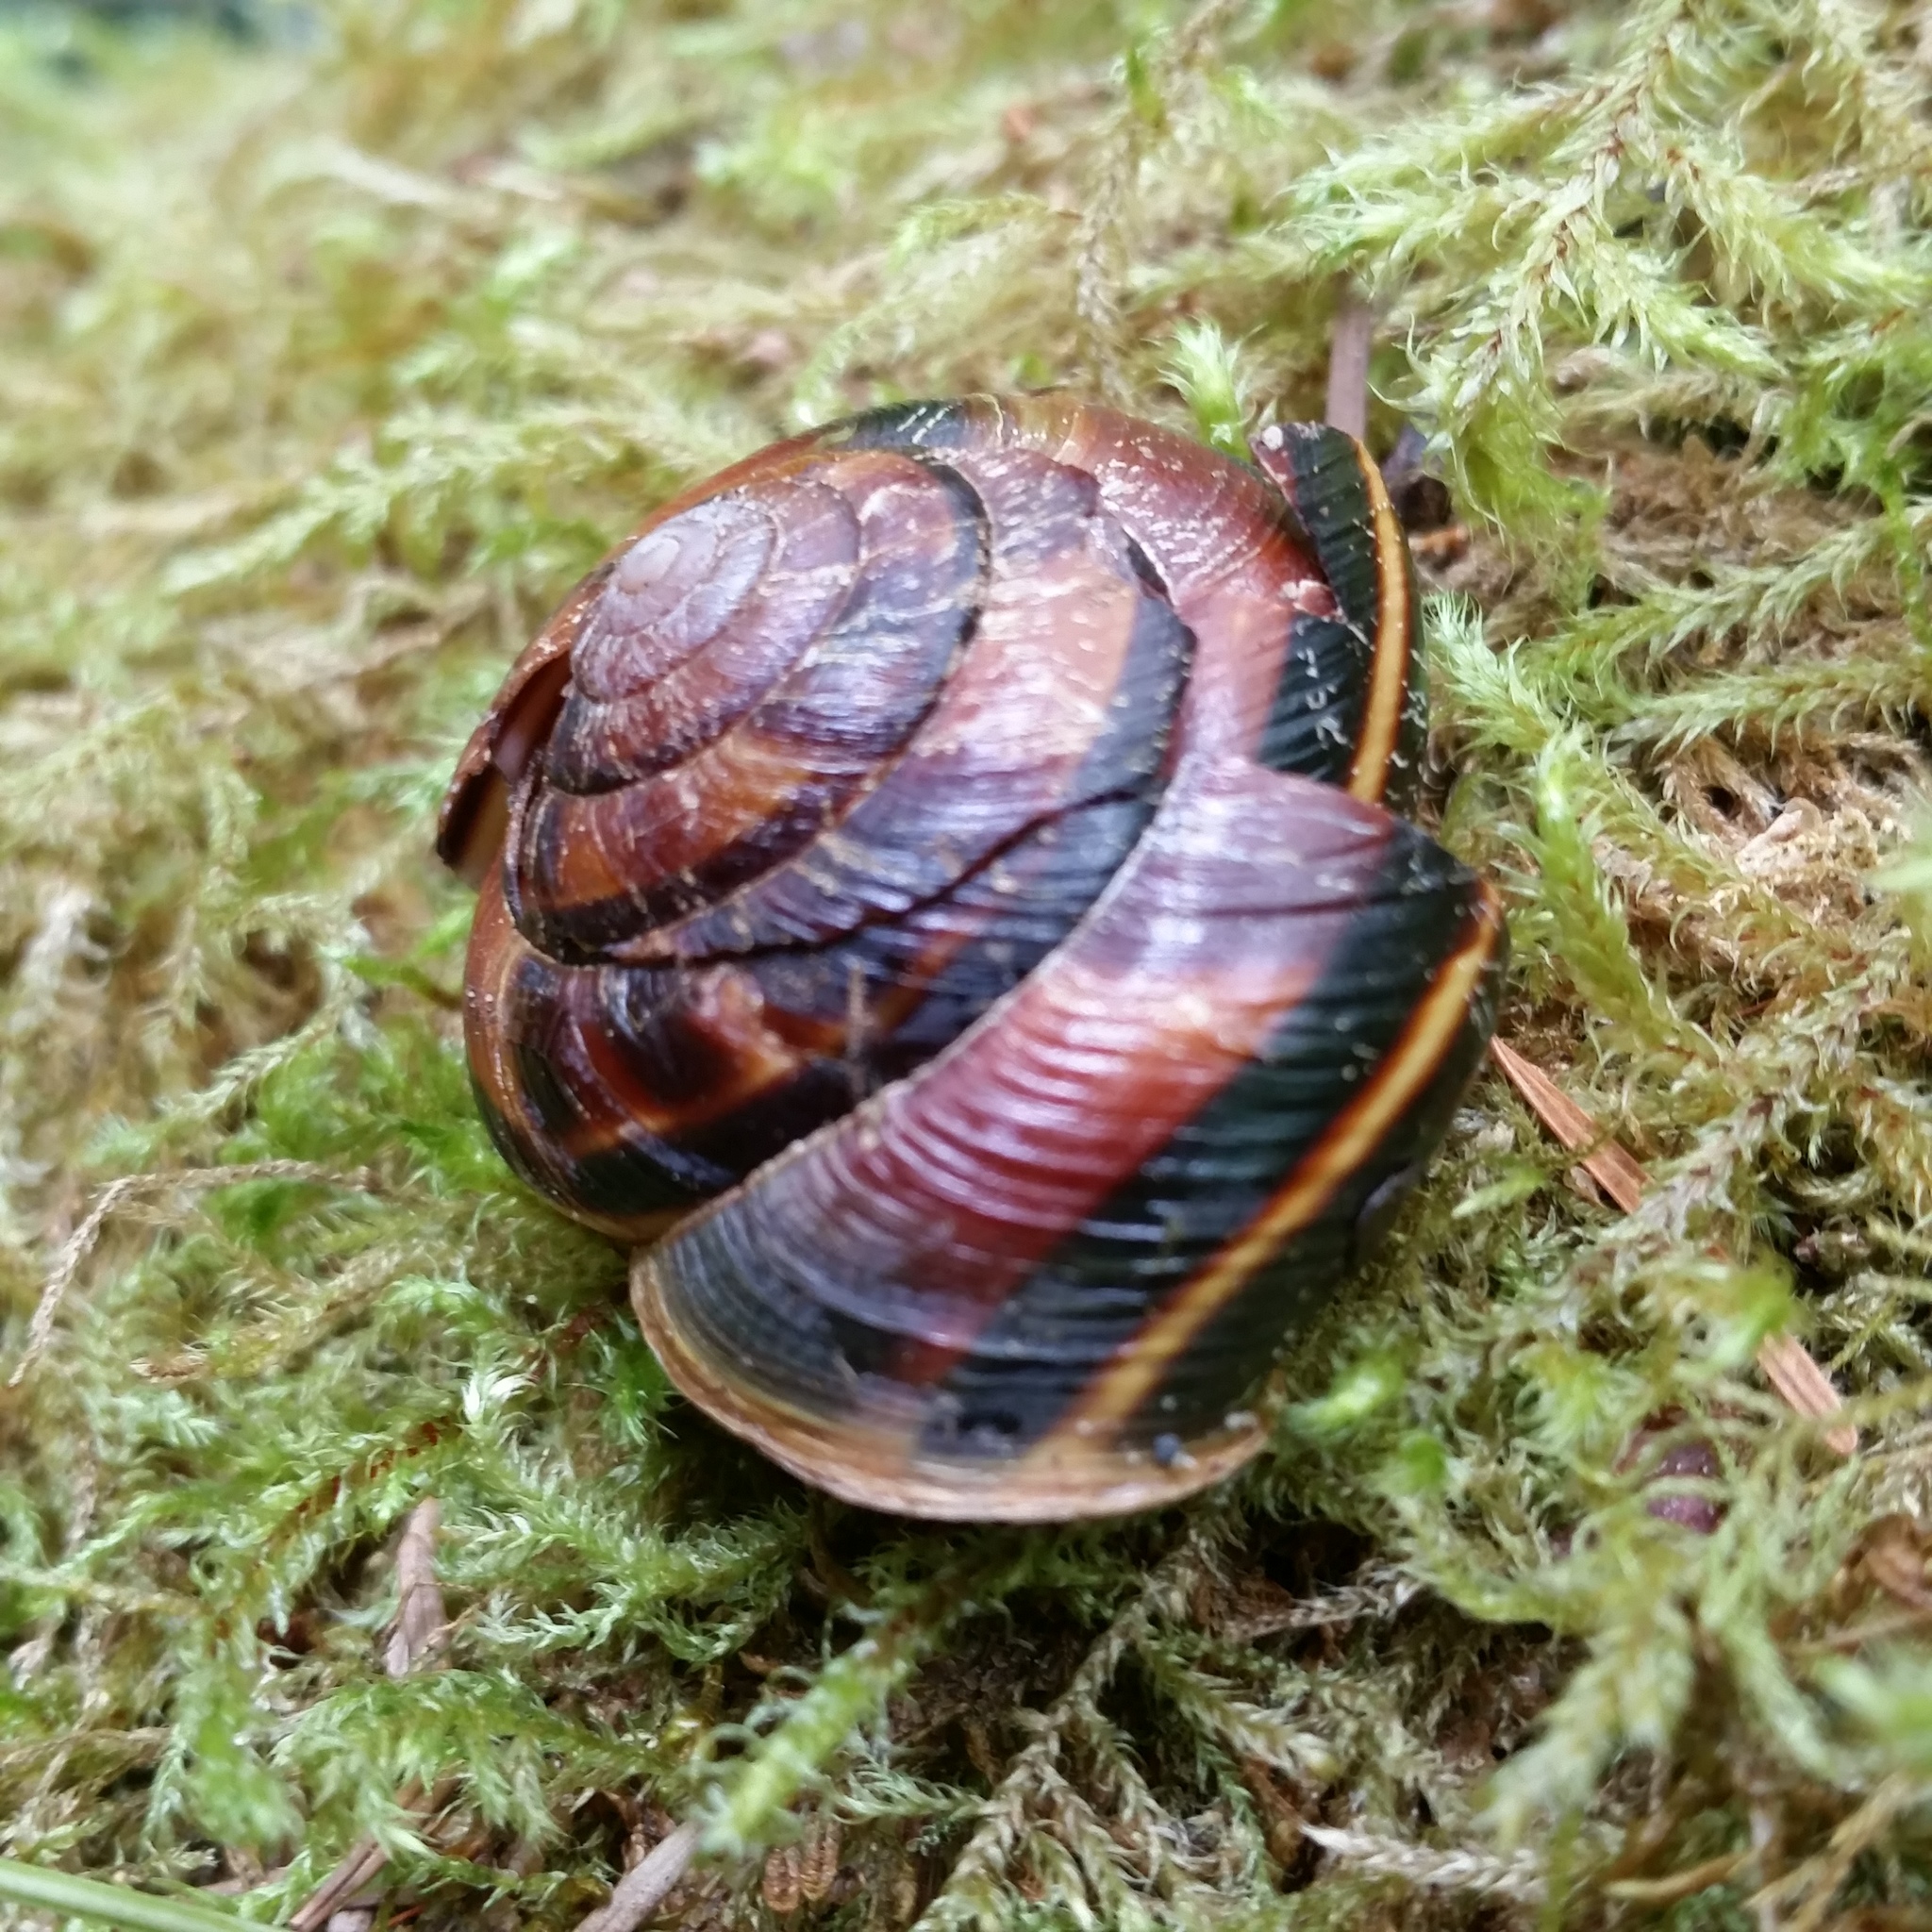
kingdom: Animalia
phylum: Mollusca
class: Gastropoda
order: Stylommatophora
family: Xanthonychidae
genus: Monadenia
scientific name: Monadenia fidelis
